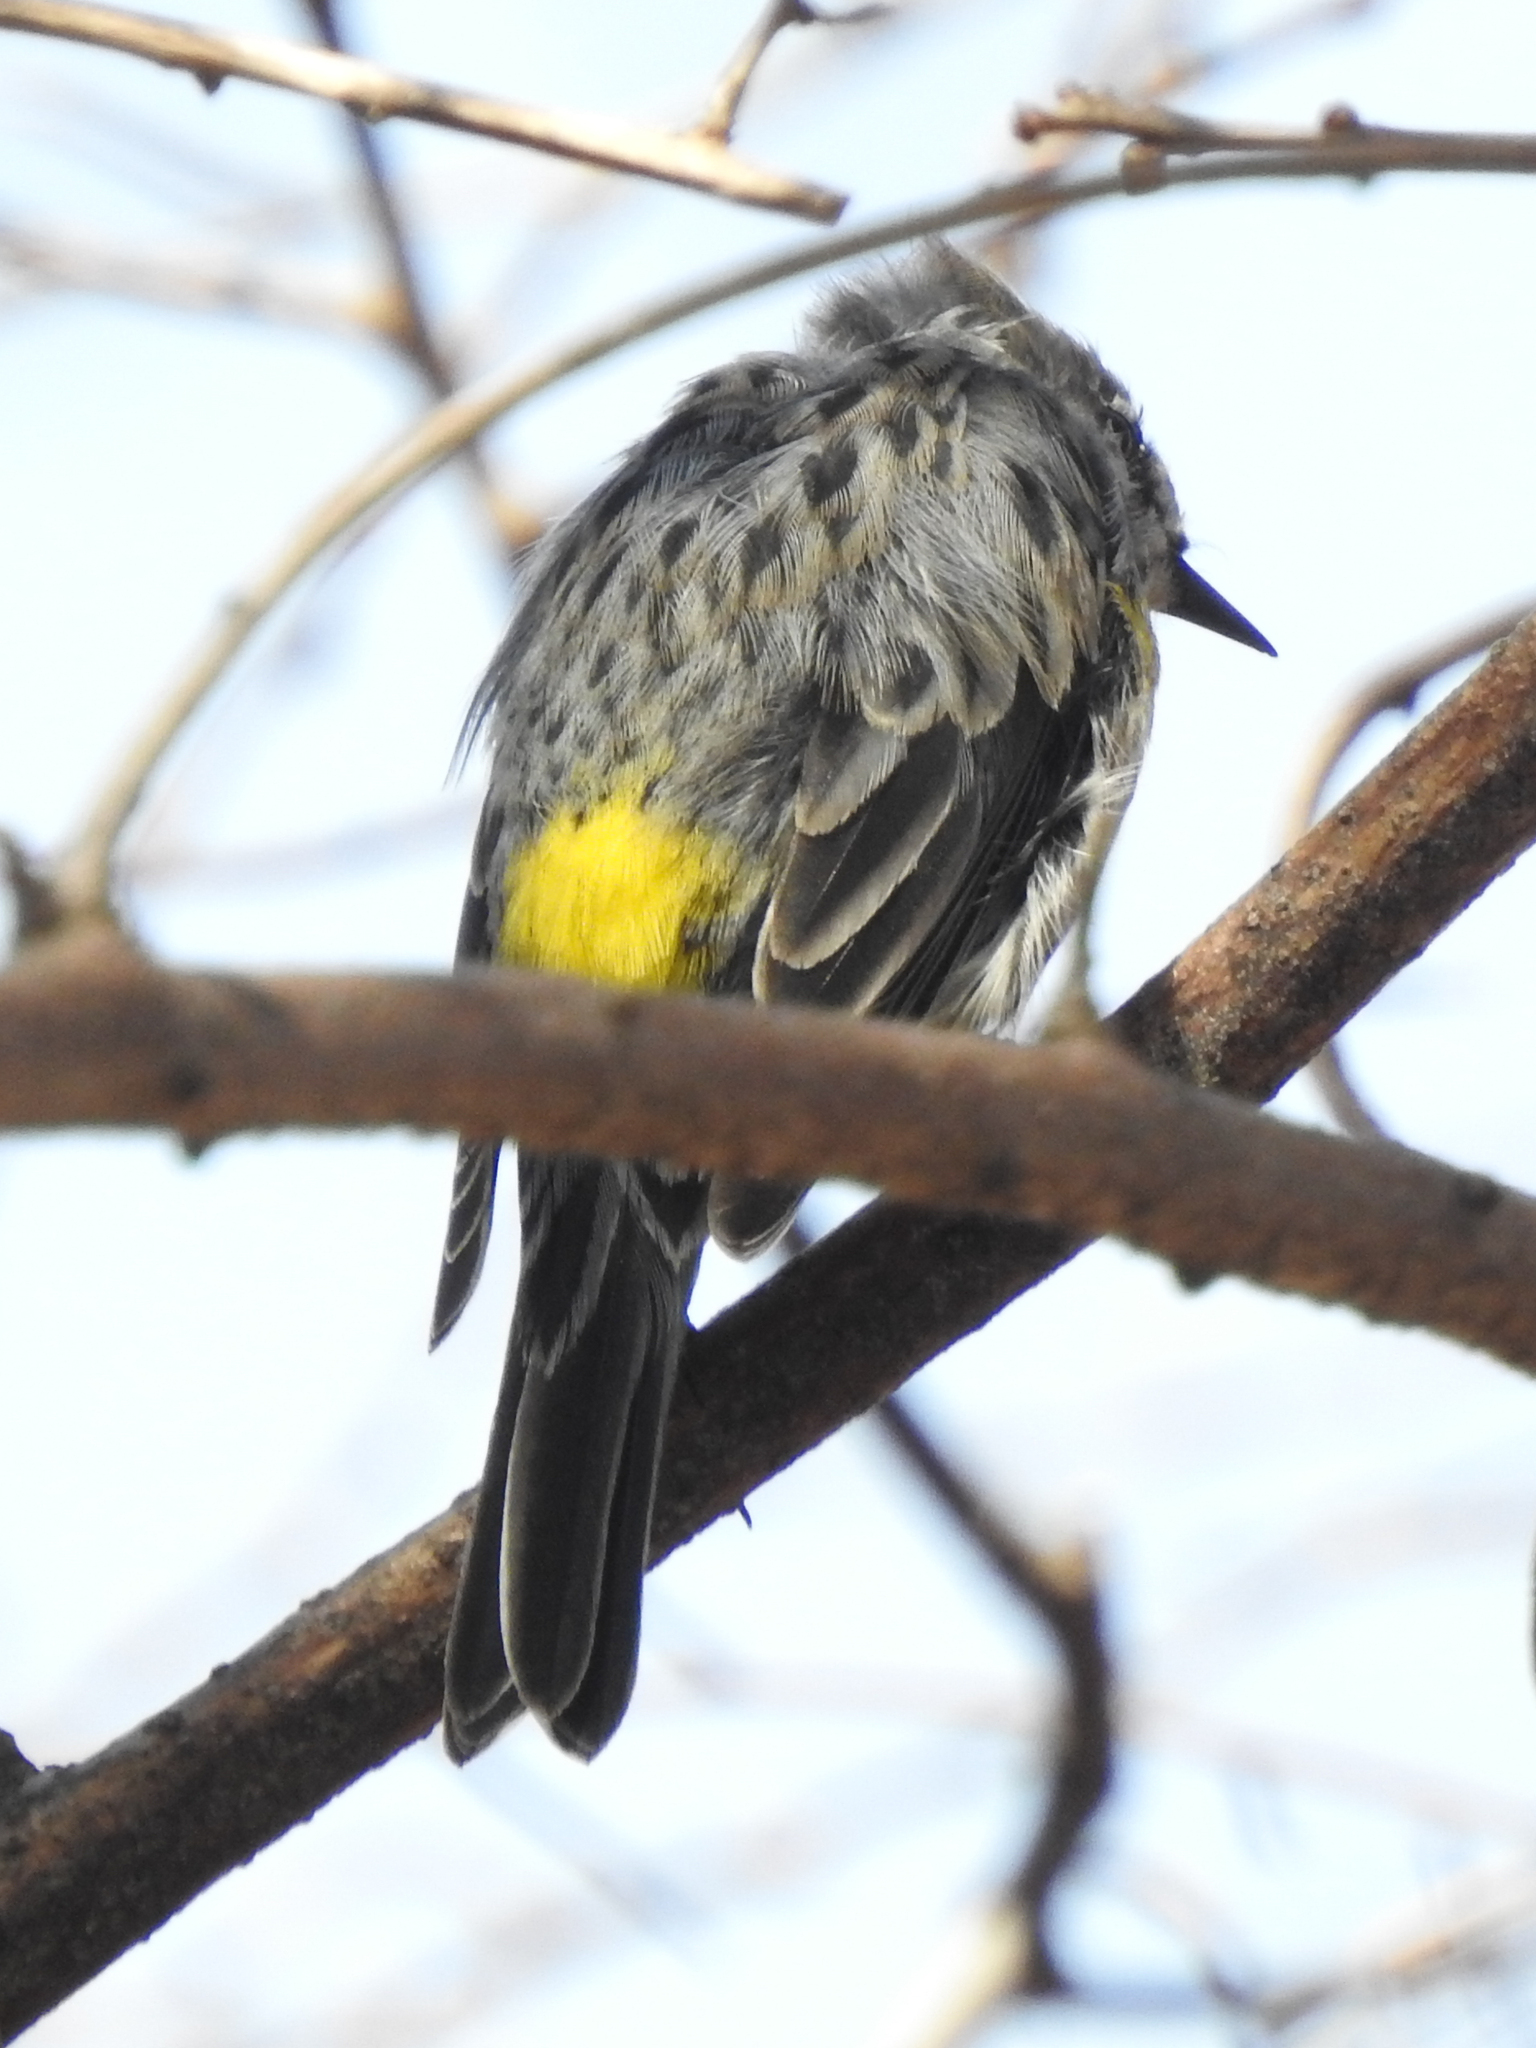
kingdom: Animalia
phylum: Chordata
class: Aves
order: Passeriformes
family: Parulidae
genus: Setophaga
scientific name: Setophaga coronata
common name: Myrtle warbler
